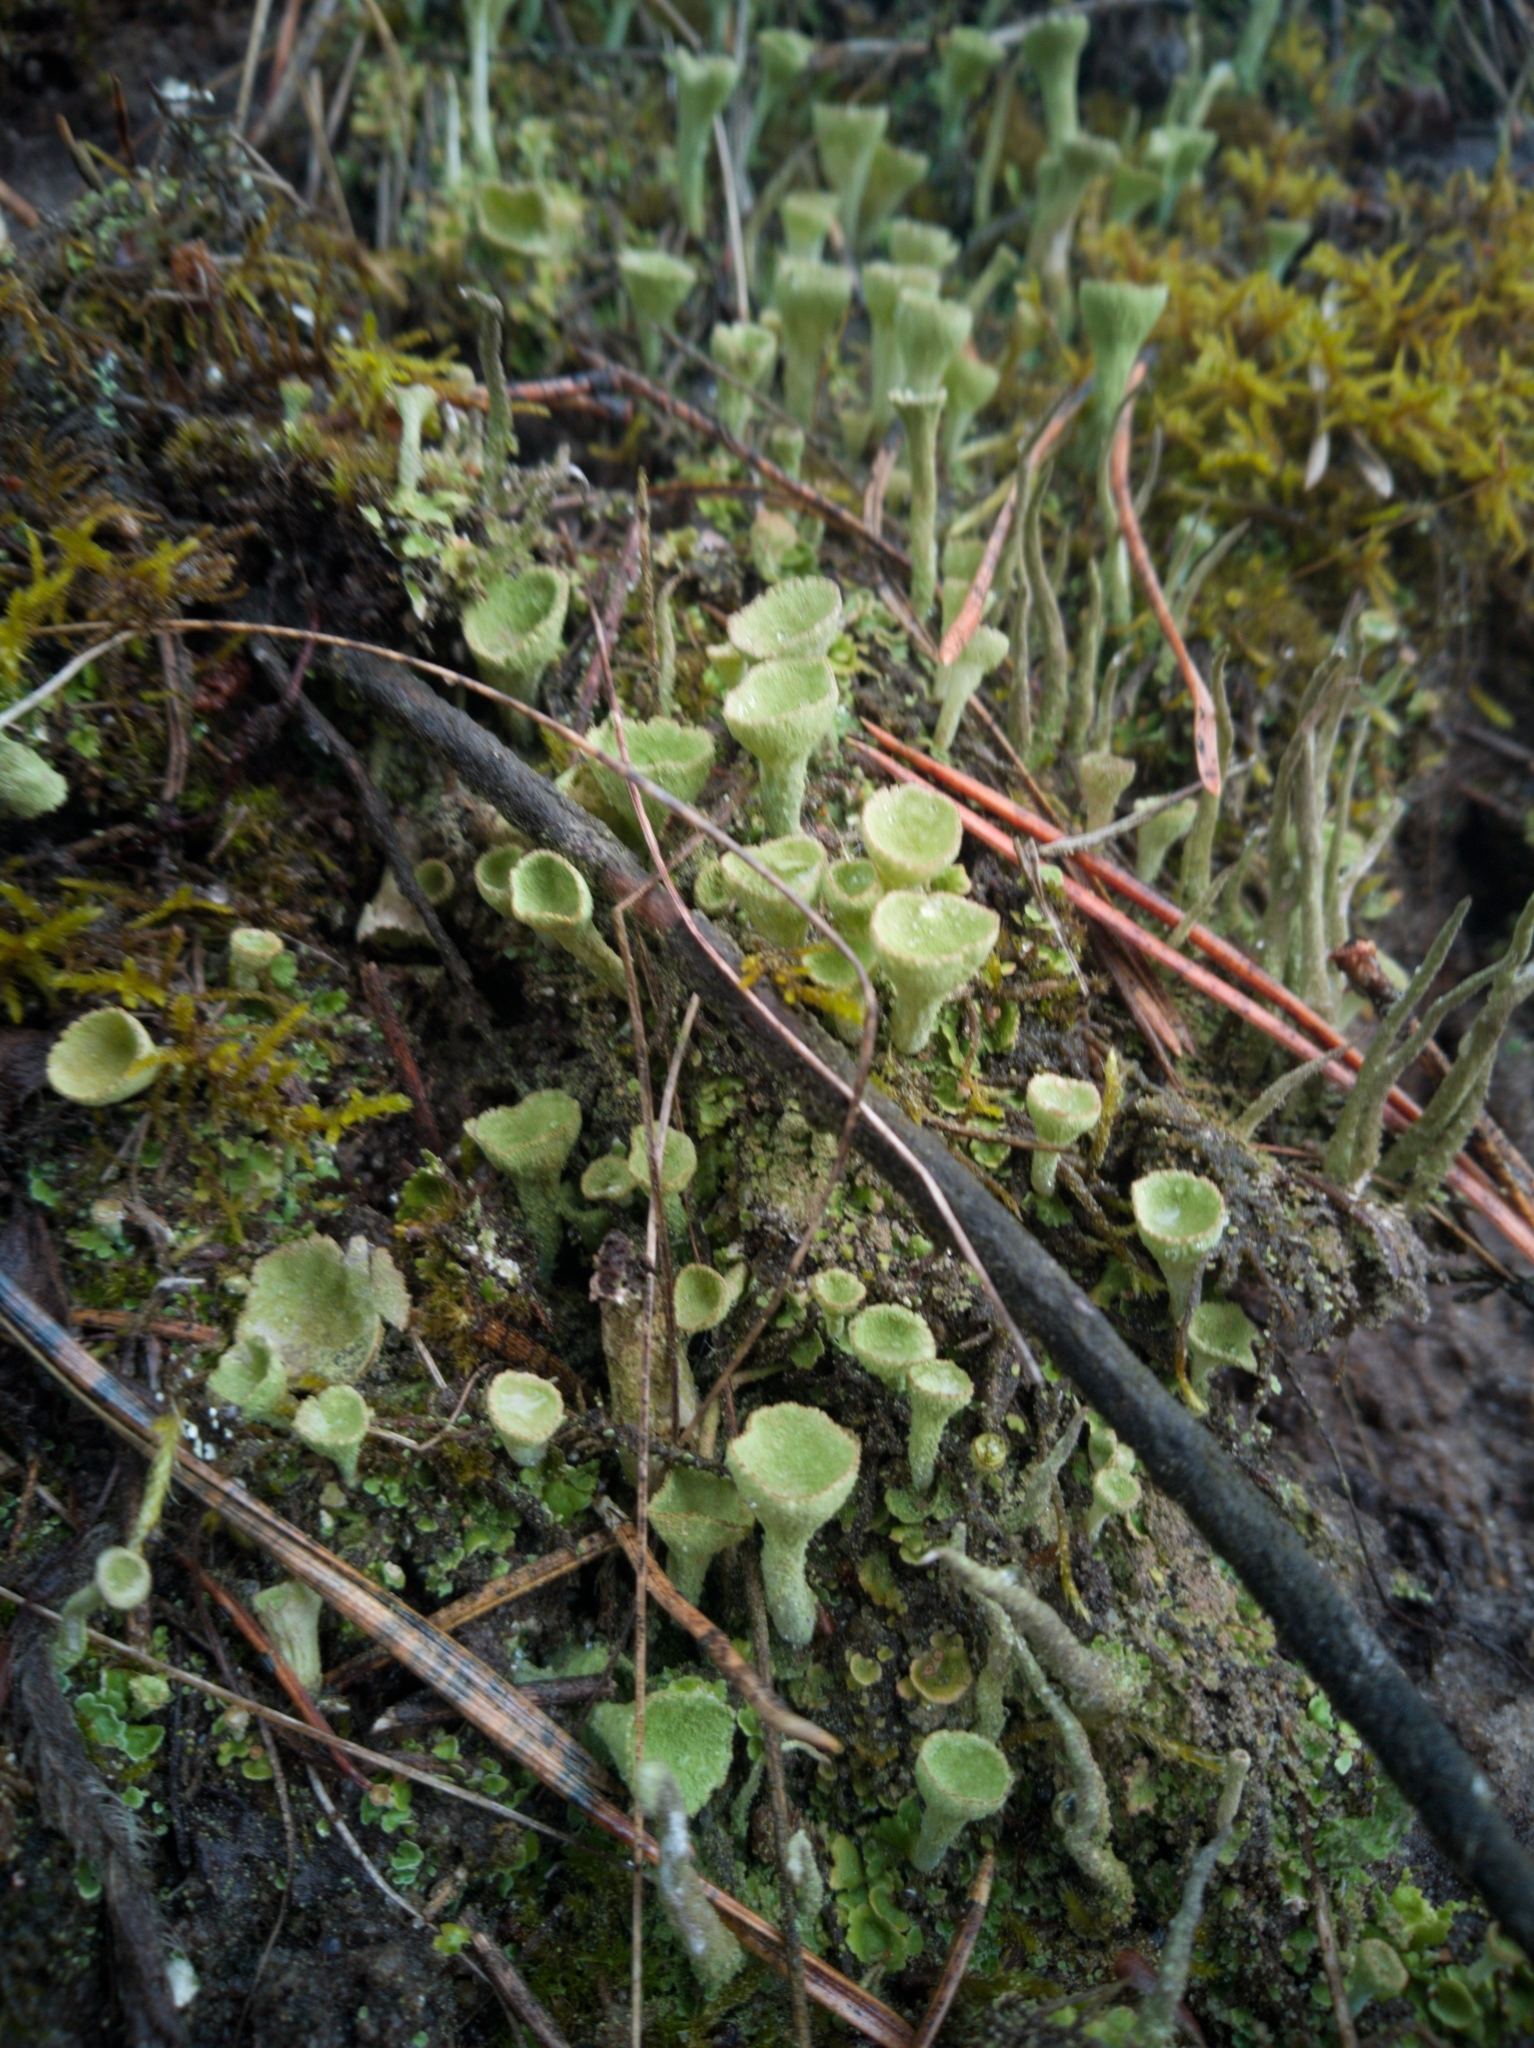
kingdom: Fungi
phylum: Ascomycota
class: Lecanoromycetes
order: Lecanorales
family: Cladoniaceae
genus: Cladonia
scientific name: Cladonia fimbriata
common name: Powdered trumpet lichen
